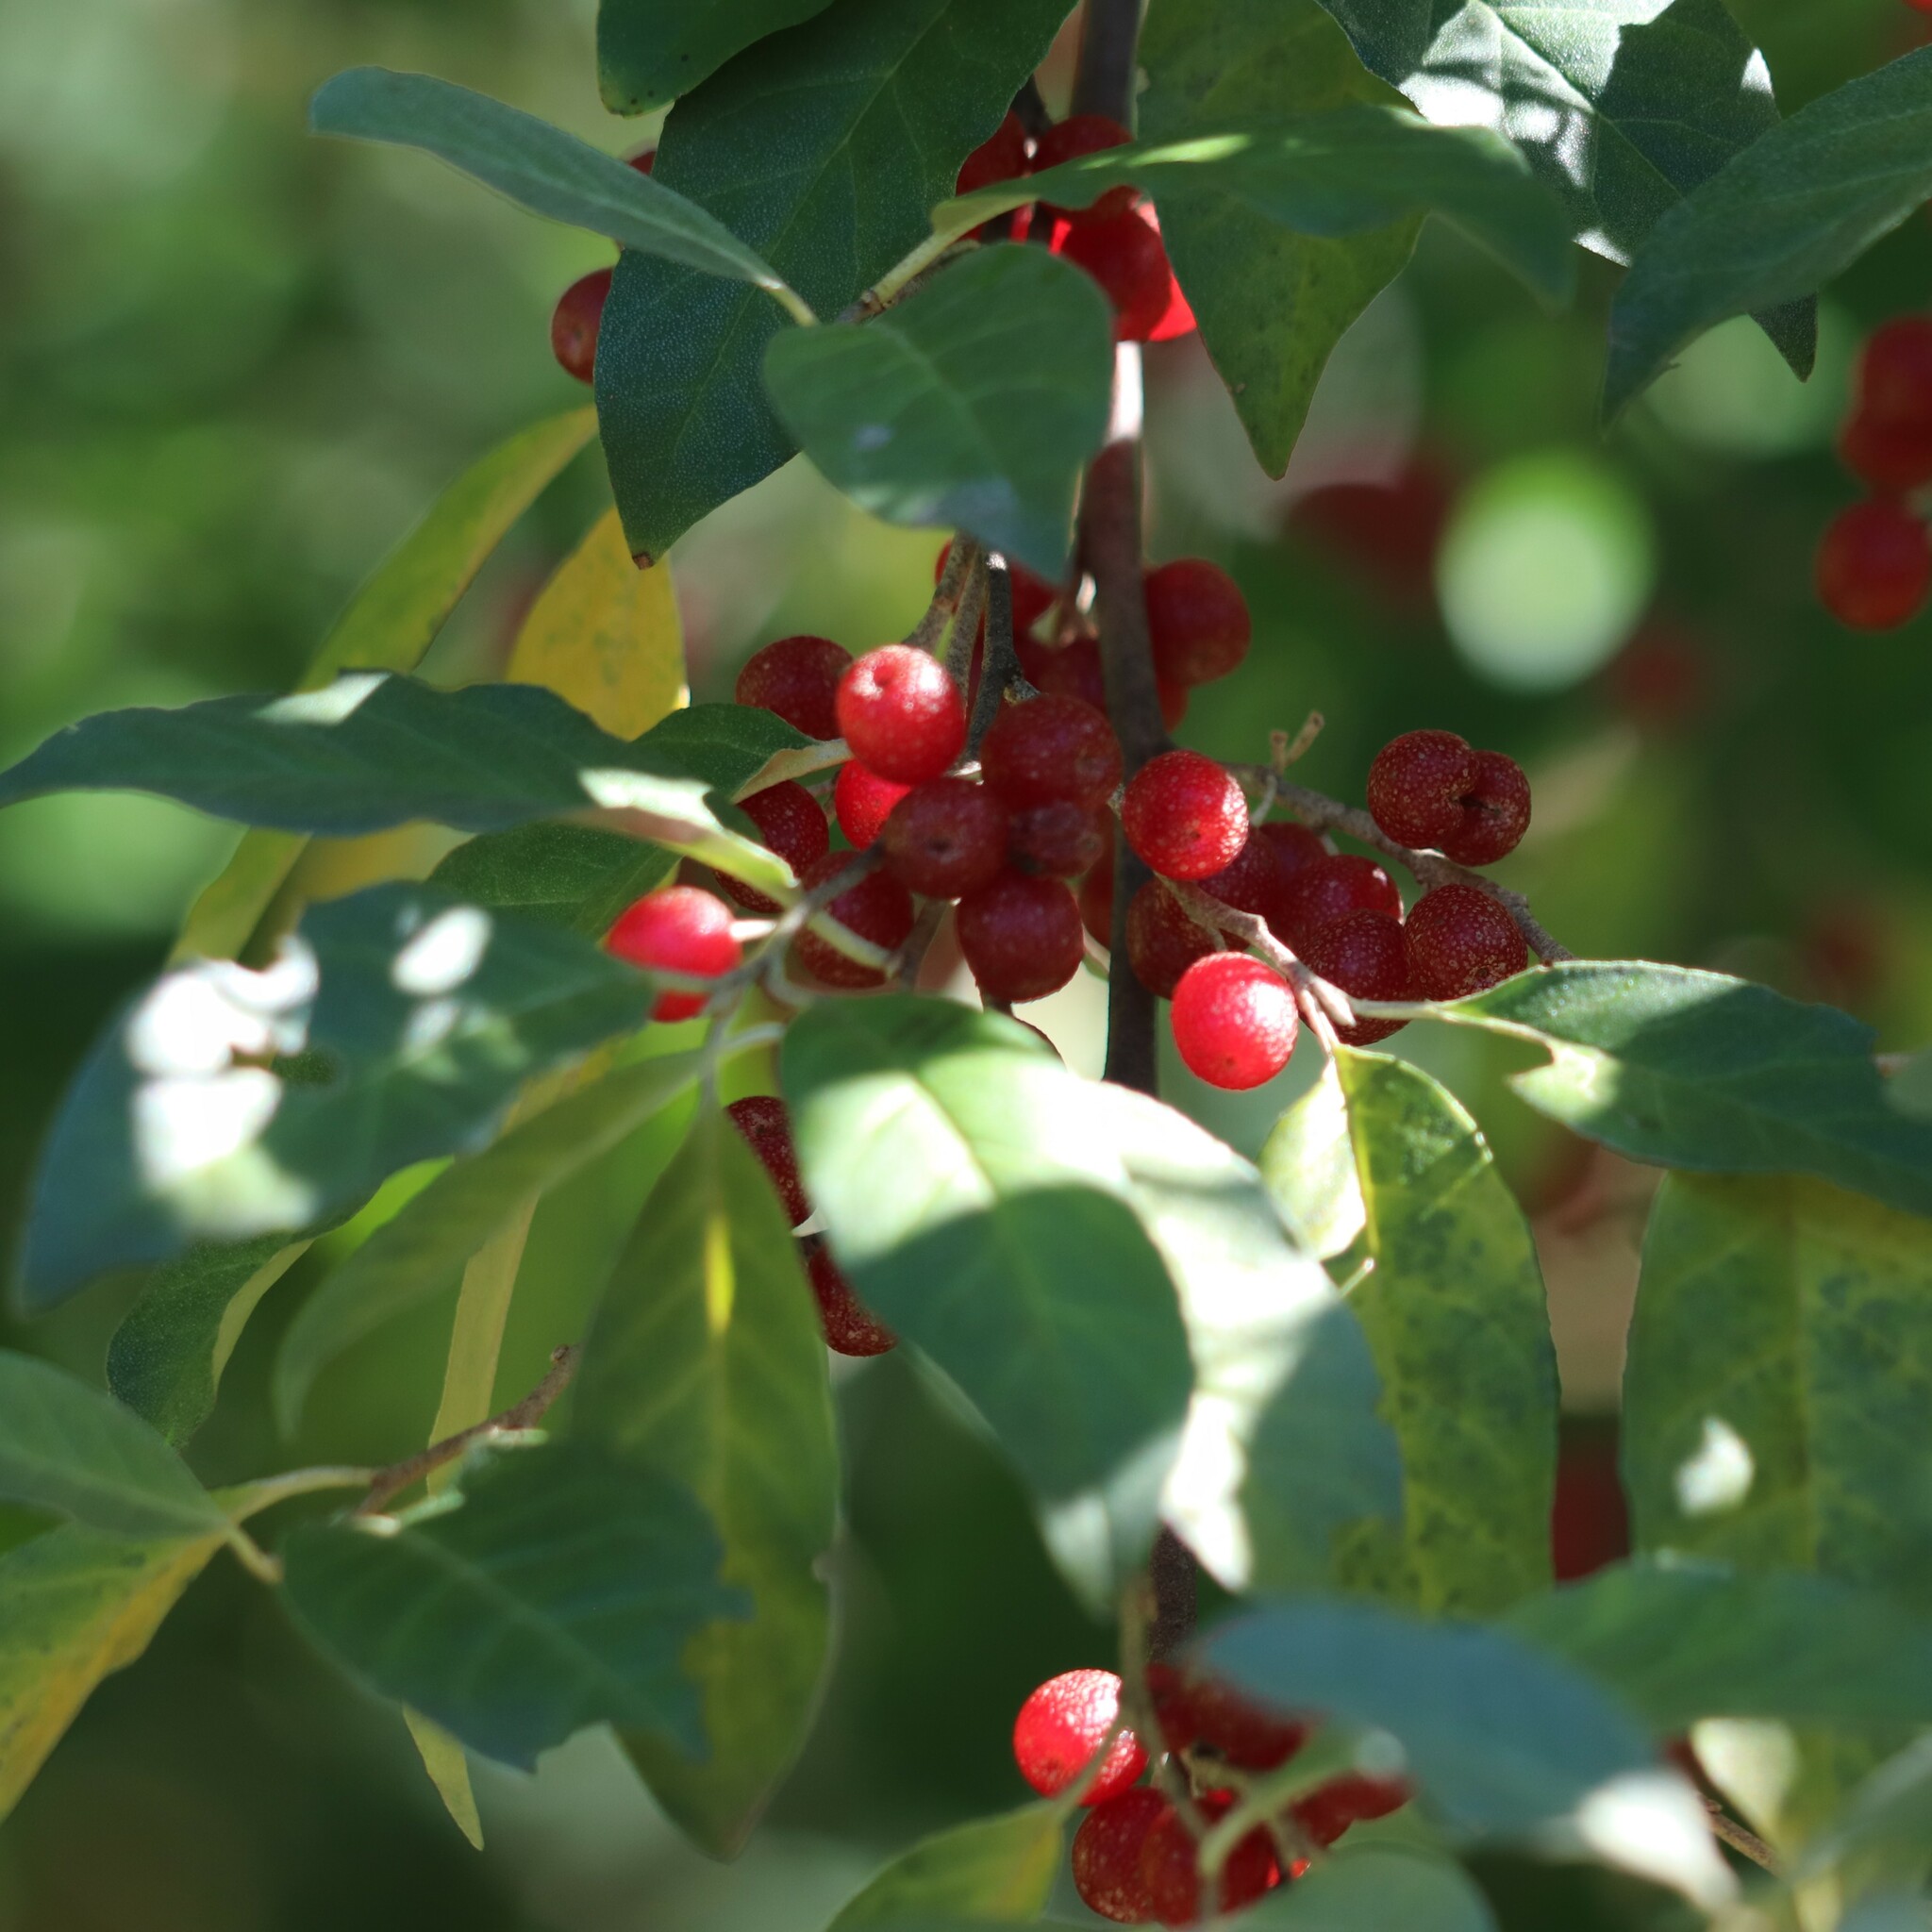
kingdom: Plantae
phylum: Tracheophyta
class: Magnoliopsida
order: Rosales
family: Elaeagnaceae
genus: Elaeagnus
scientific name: Elaeagnus umbellata
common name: Autumn olive
